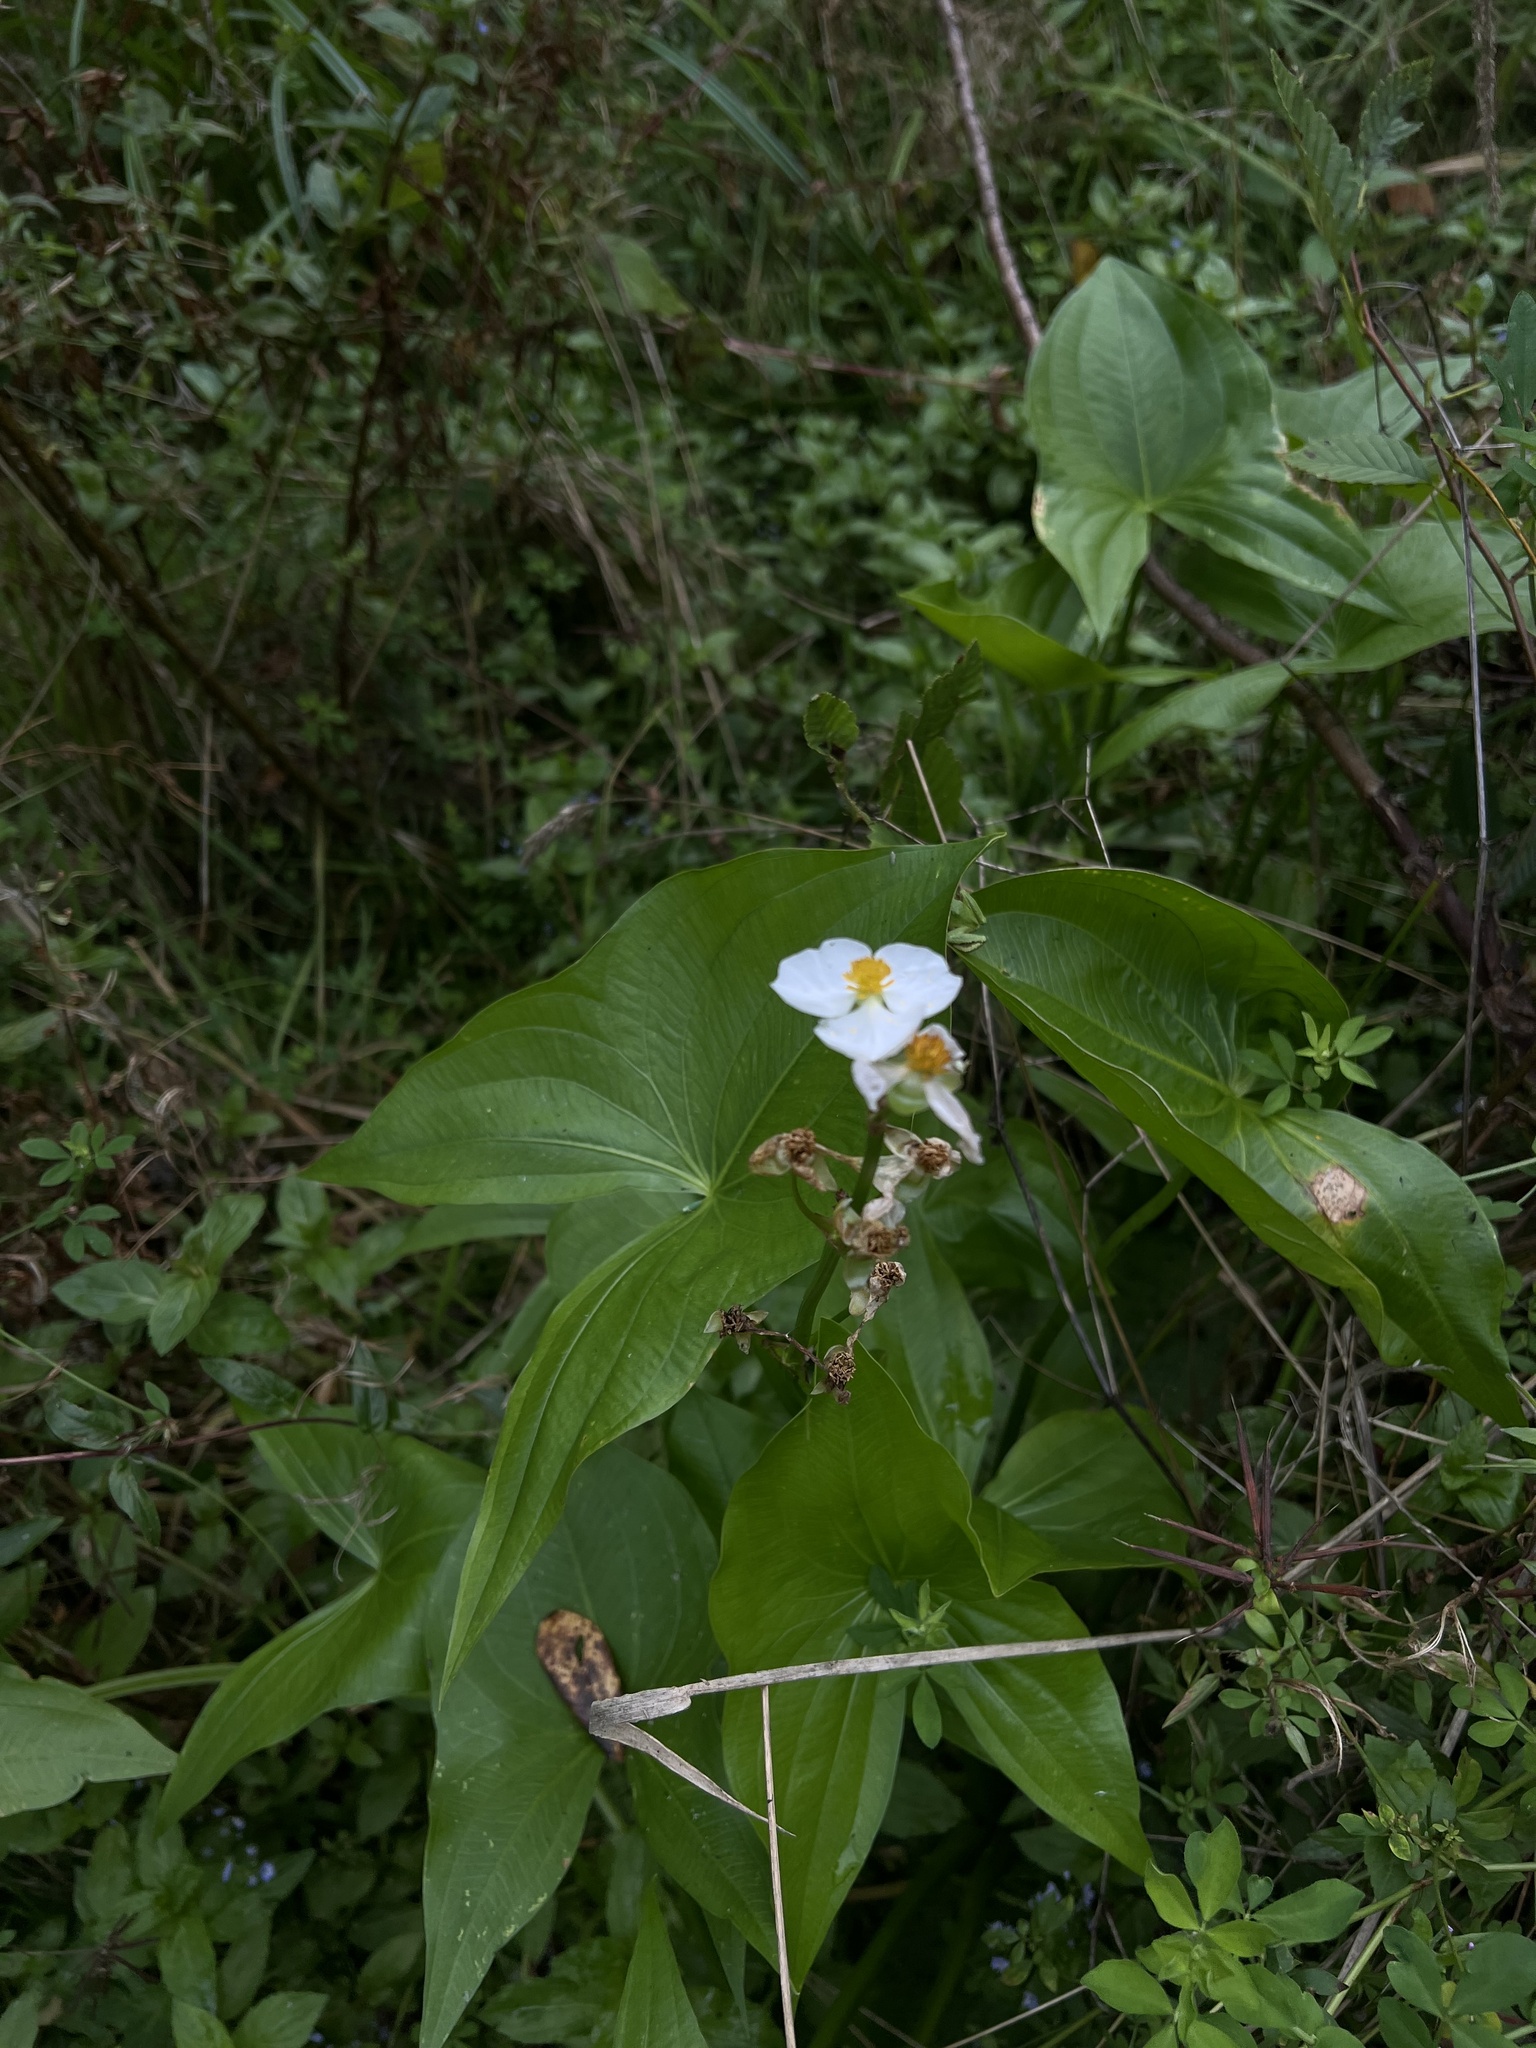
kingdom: Plantae
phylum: Tracheophyta
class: Liliopsida
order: Alismatales
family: Alismataceae
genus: Sagittaria
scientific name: Sagittaria latifolia
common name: Duck-potato
